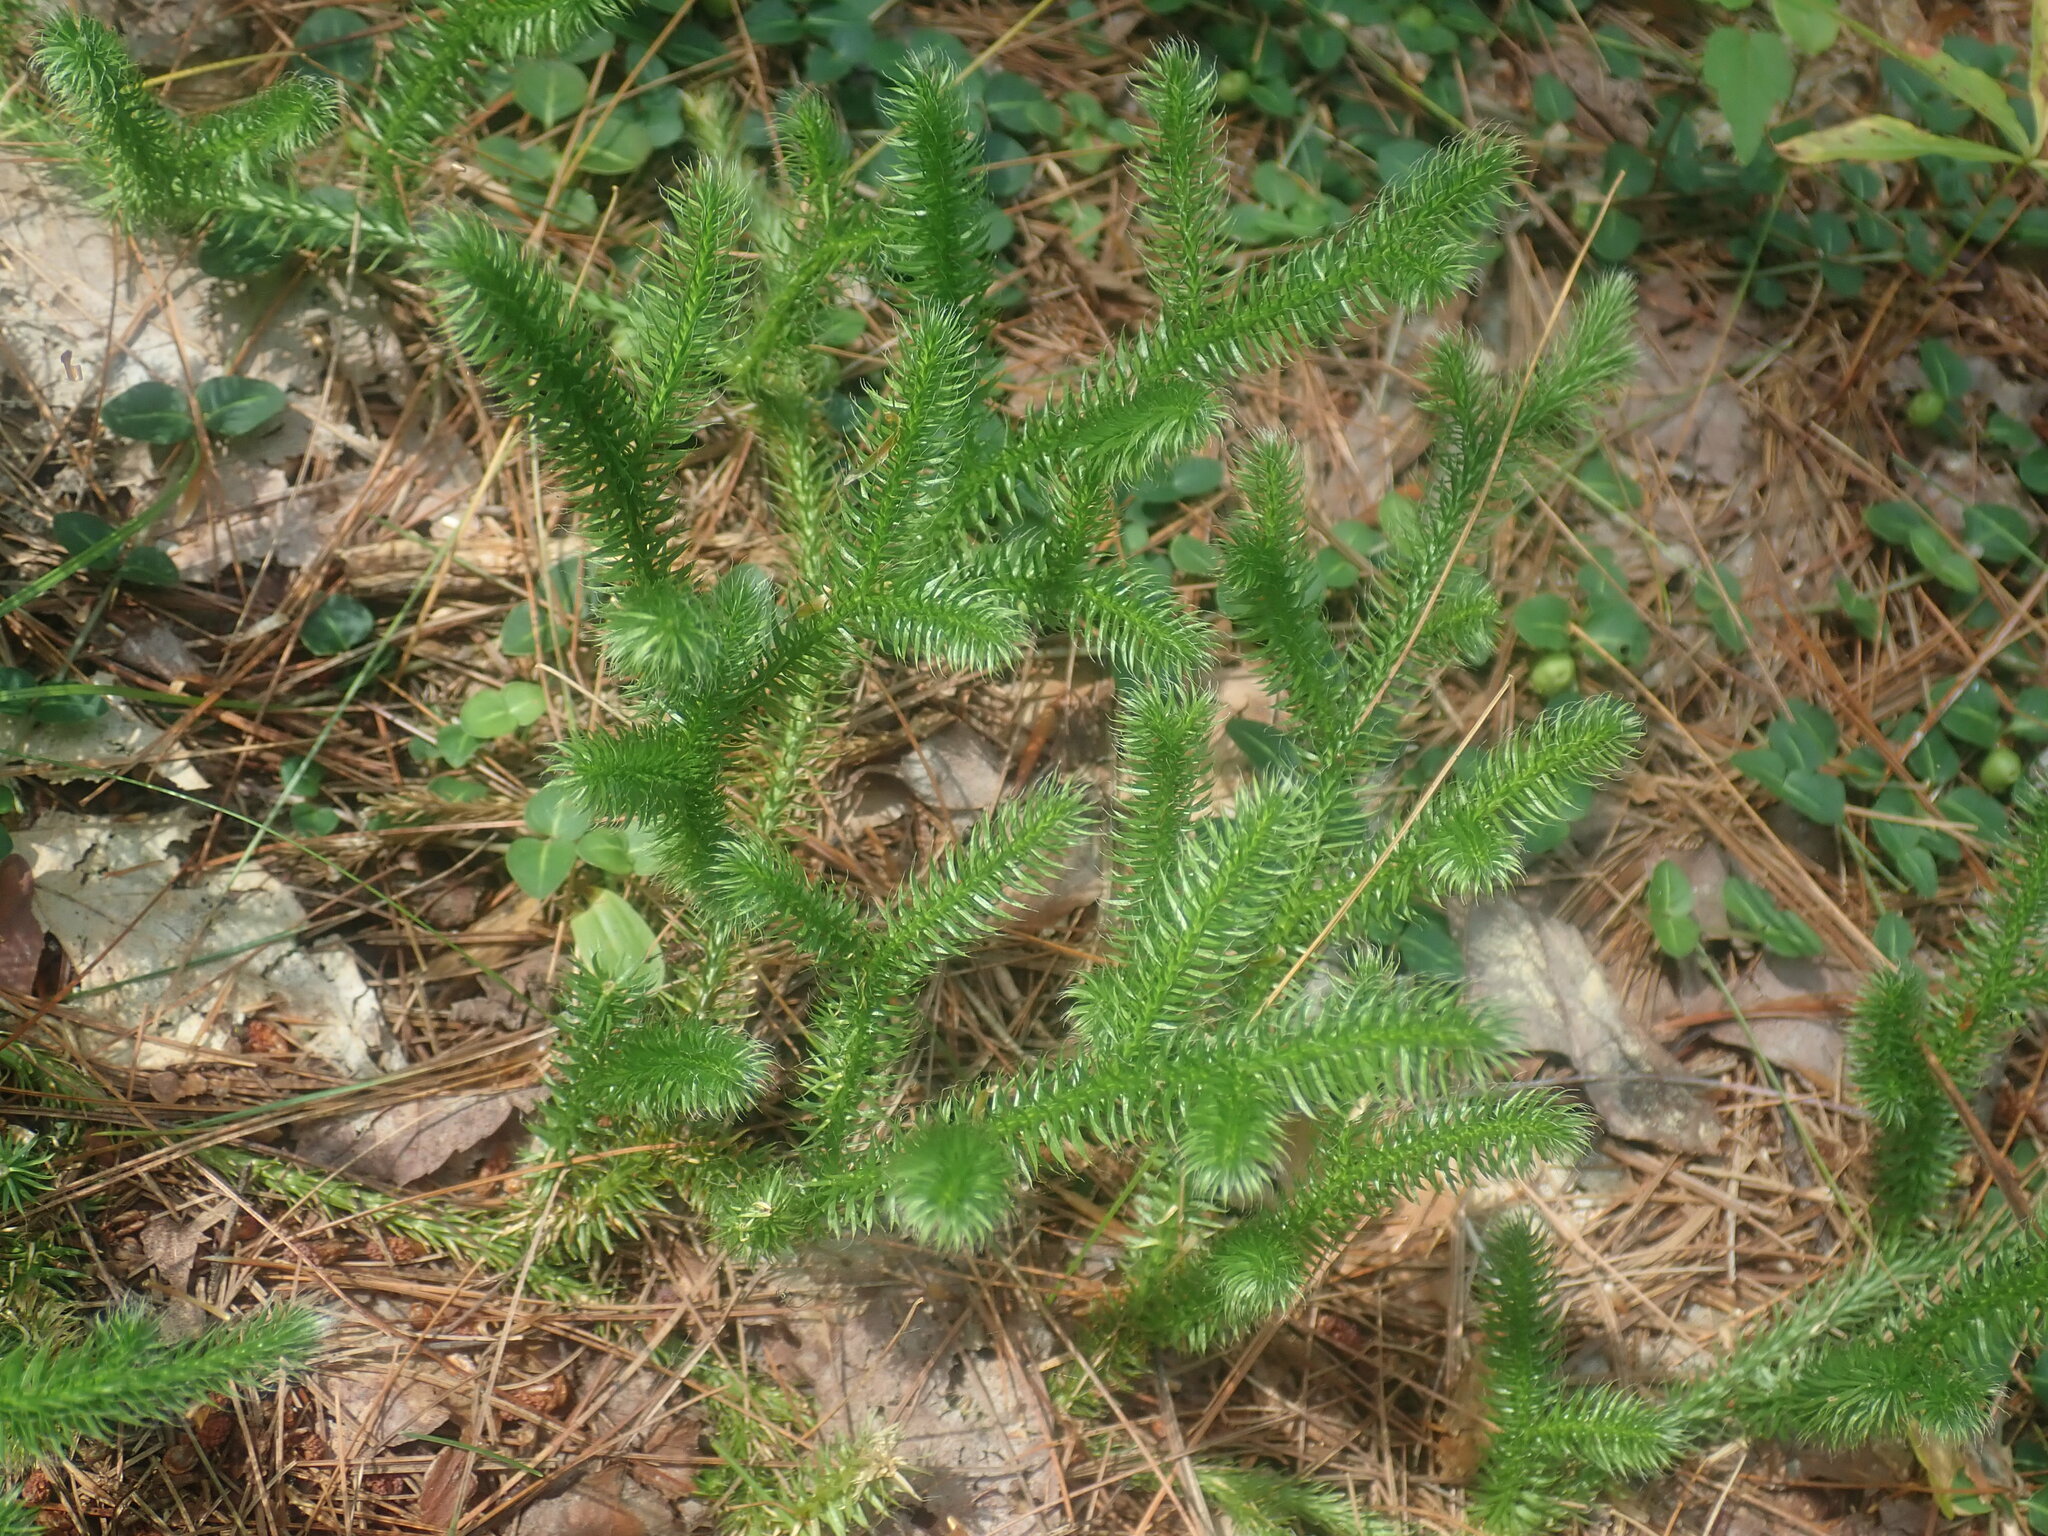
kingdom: Plantae
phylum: Tracheophyta
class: Lycopodiopsida
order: Lycopodiales
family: Lycopodiaceae
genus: Lycopodium
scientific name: Lycopodium clavatum
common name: Stag's-horn clubmoss
